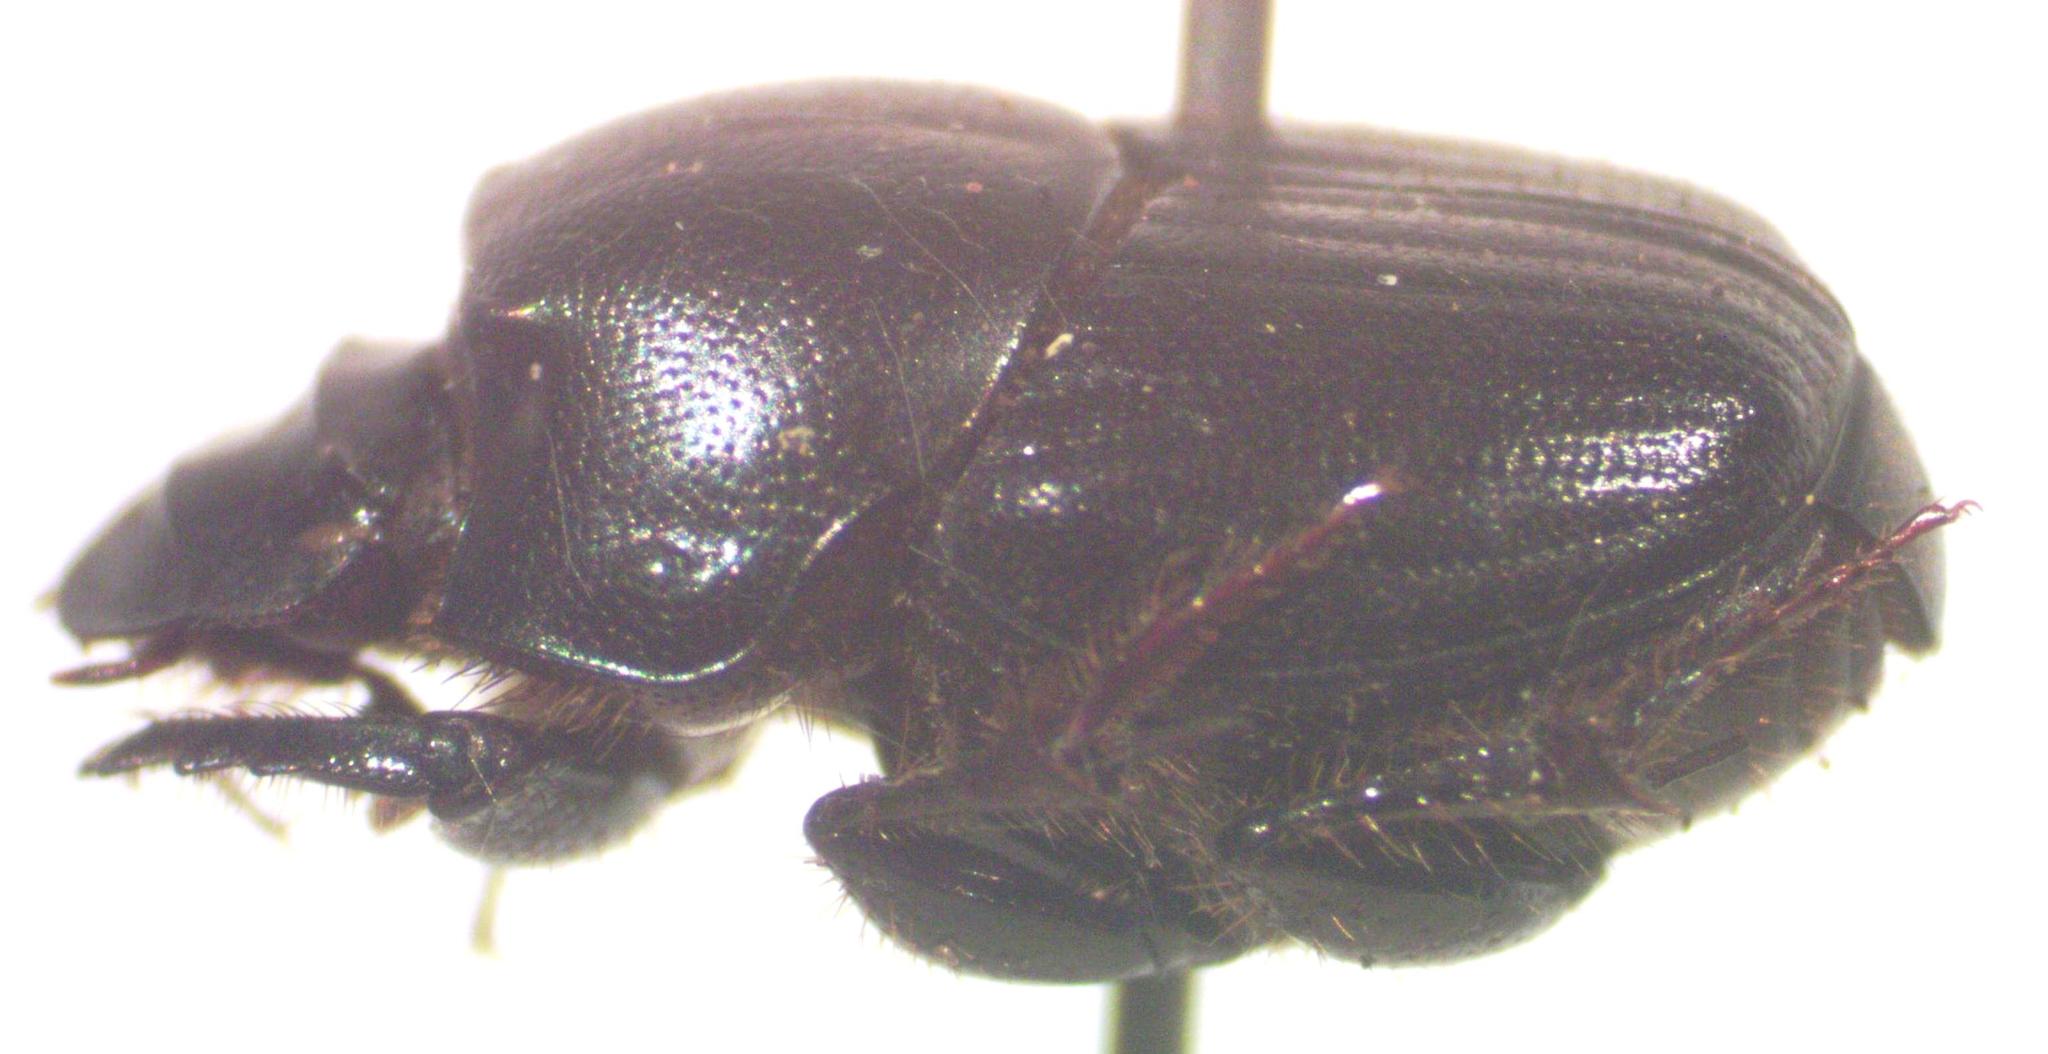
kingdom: Animalia
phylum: Arthropoda
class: Insecta
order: Coleoptera
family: Scarabaeidae
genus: Onthophagus
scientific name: Onthophagus championi
